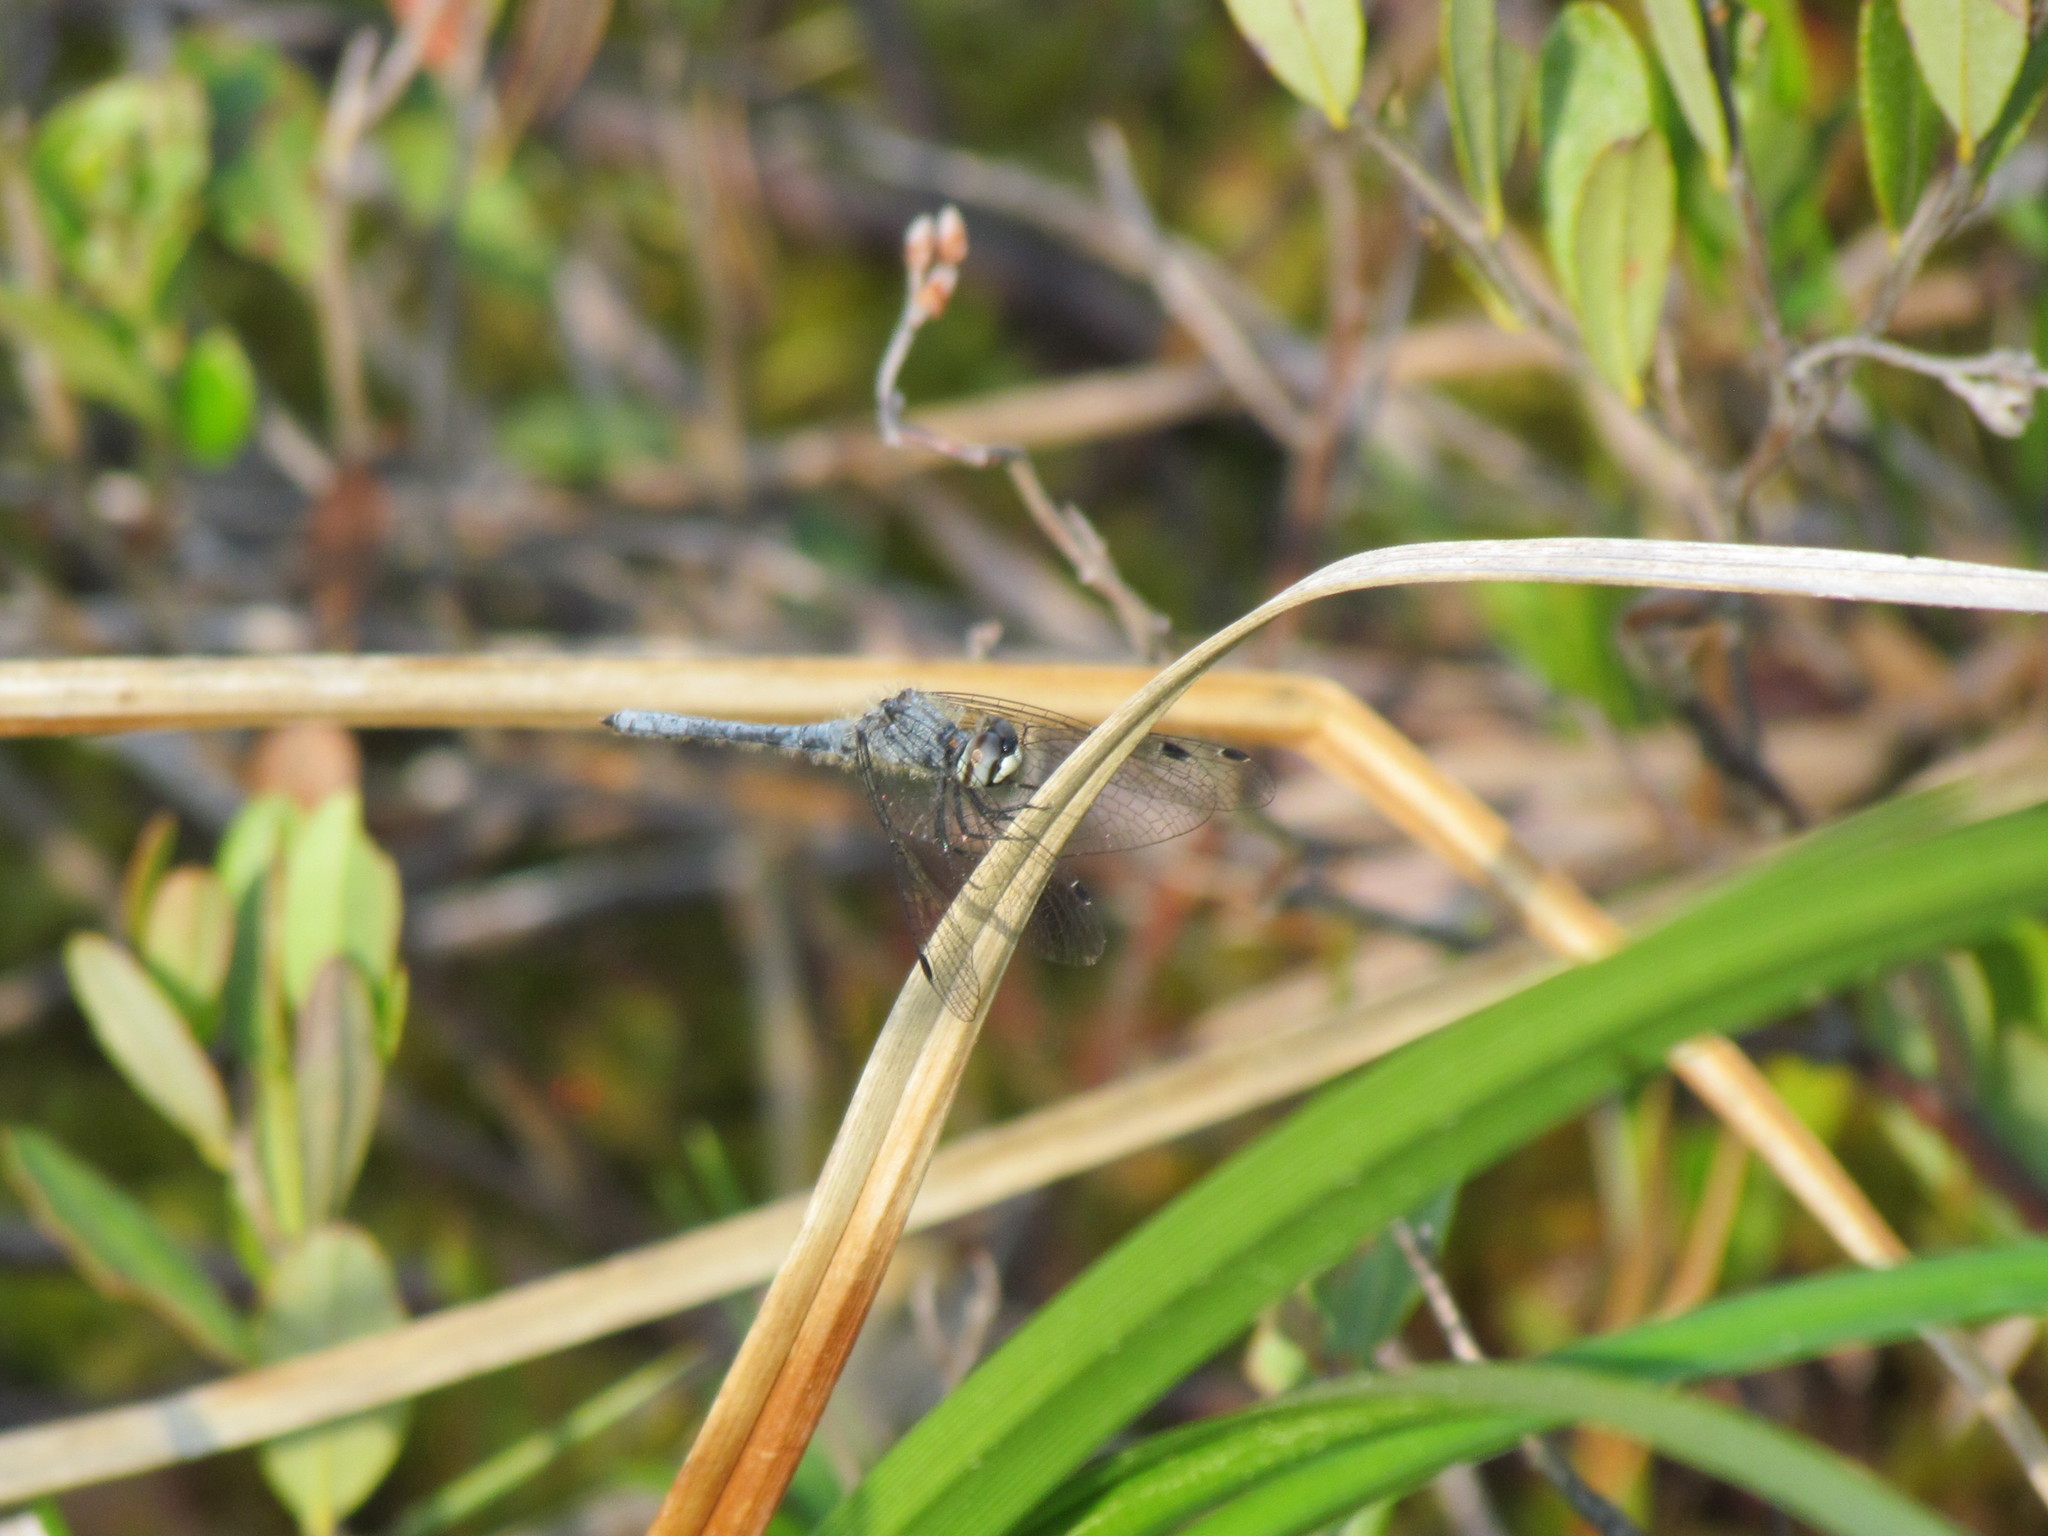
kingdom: Animalia
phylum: Arthropoda
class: Insecta
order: Odonata
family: Libellulidae
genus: Nannothemis
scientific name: Nannothemis bella
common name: Elfin skimmer
